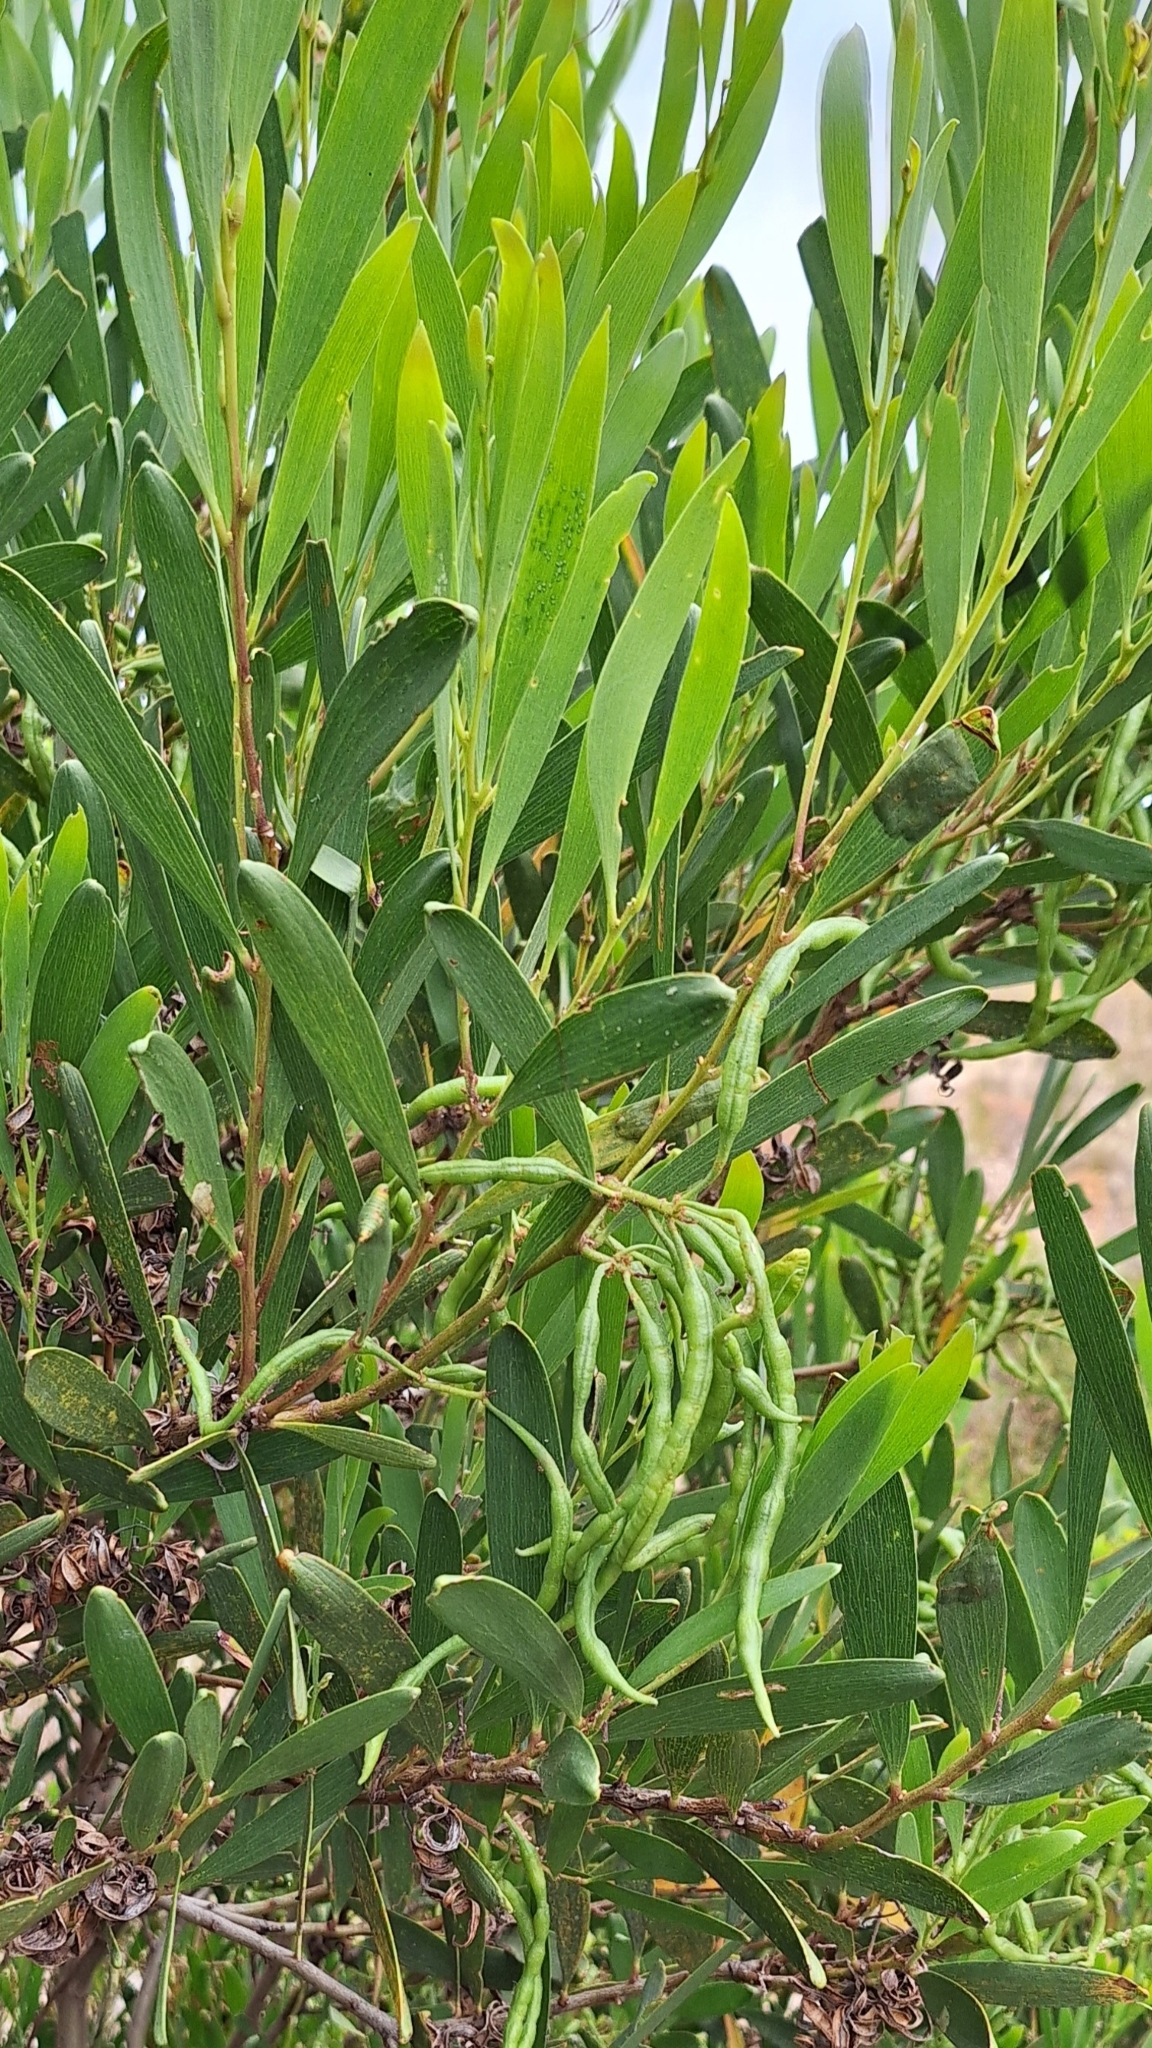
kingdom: Plantae
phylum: Tracheophyta
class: Magnoliopsida
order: Fabales
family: Fabaceae
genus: Acacia
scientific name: Acacia longifolia
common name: Sydney golden wattle
